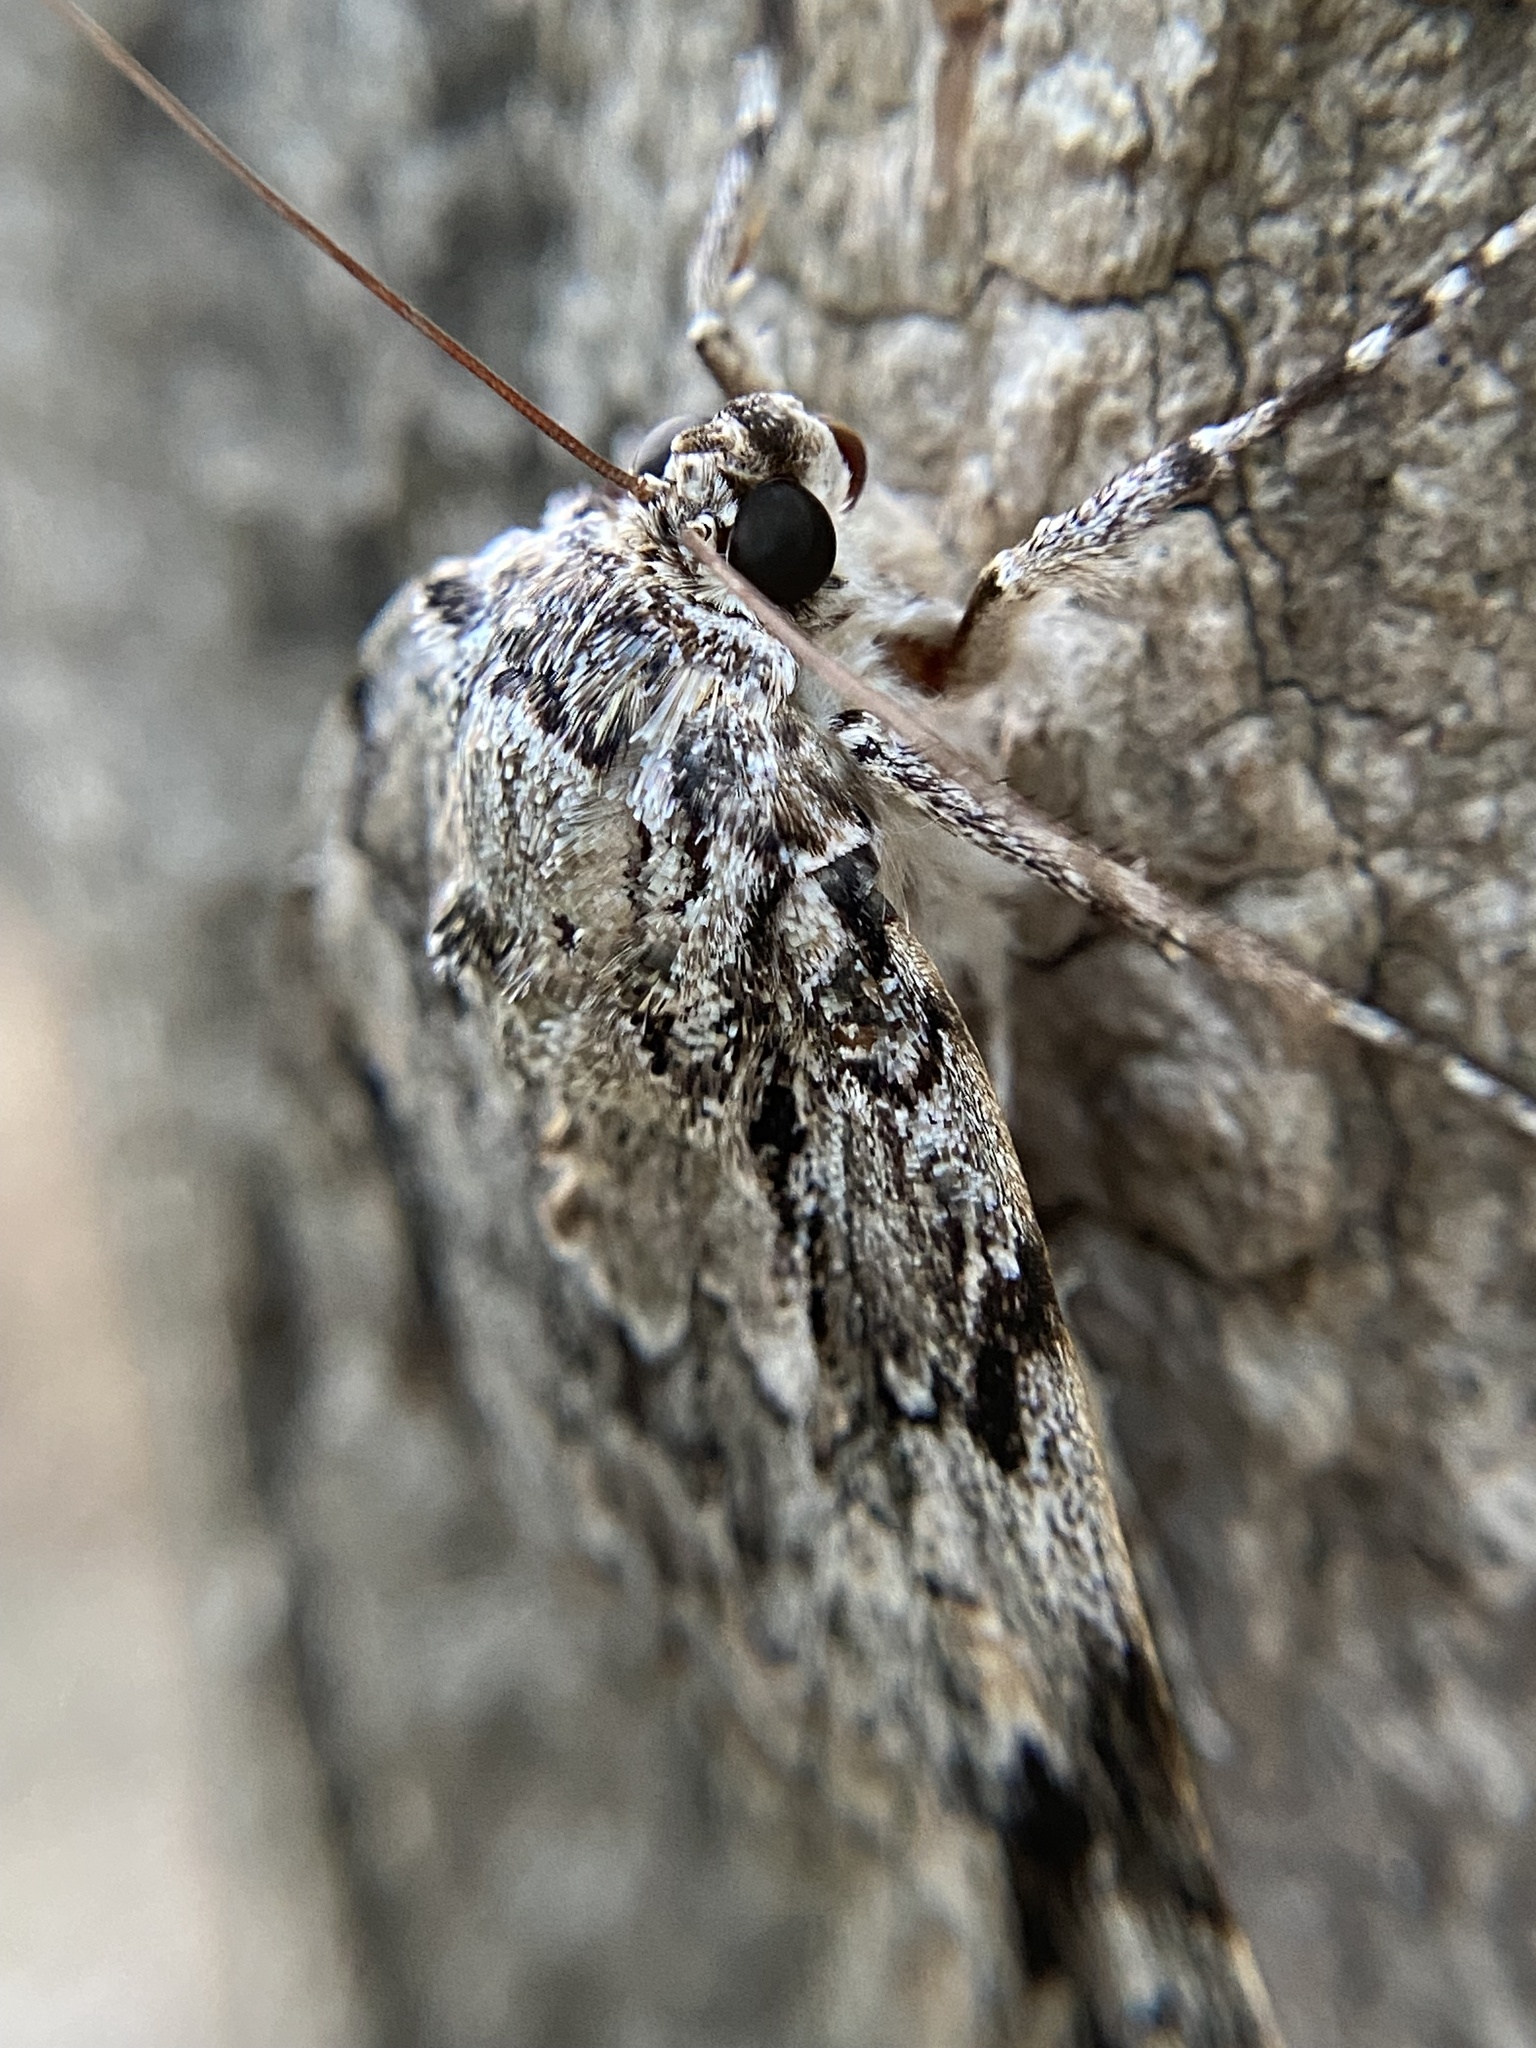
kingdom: Animalia
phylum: Arthropoda
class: Insecta
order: Lepidoptera
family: Erebidae
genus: Catocala
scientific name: Catocala maestosa
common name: Sad underwing
